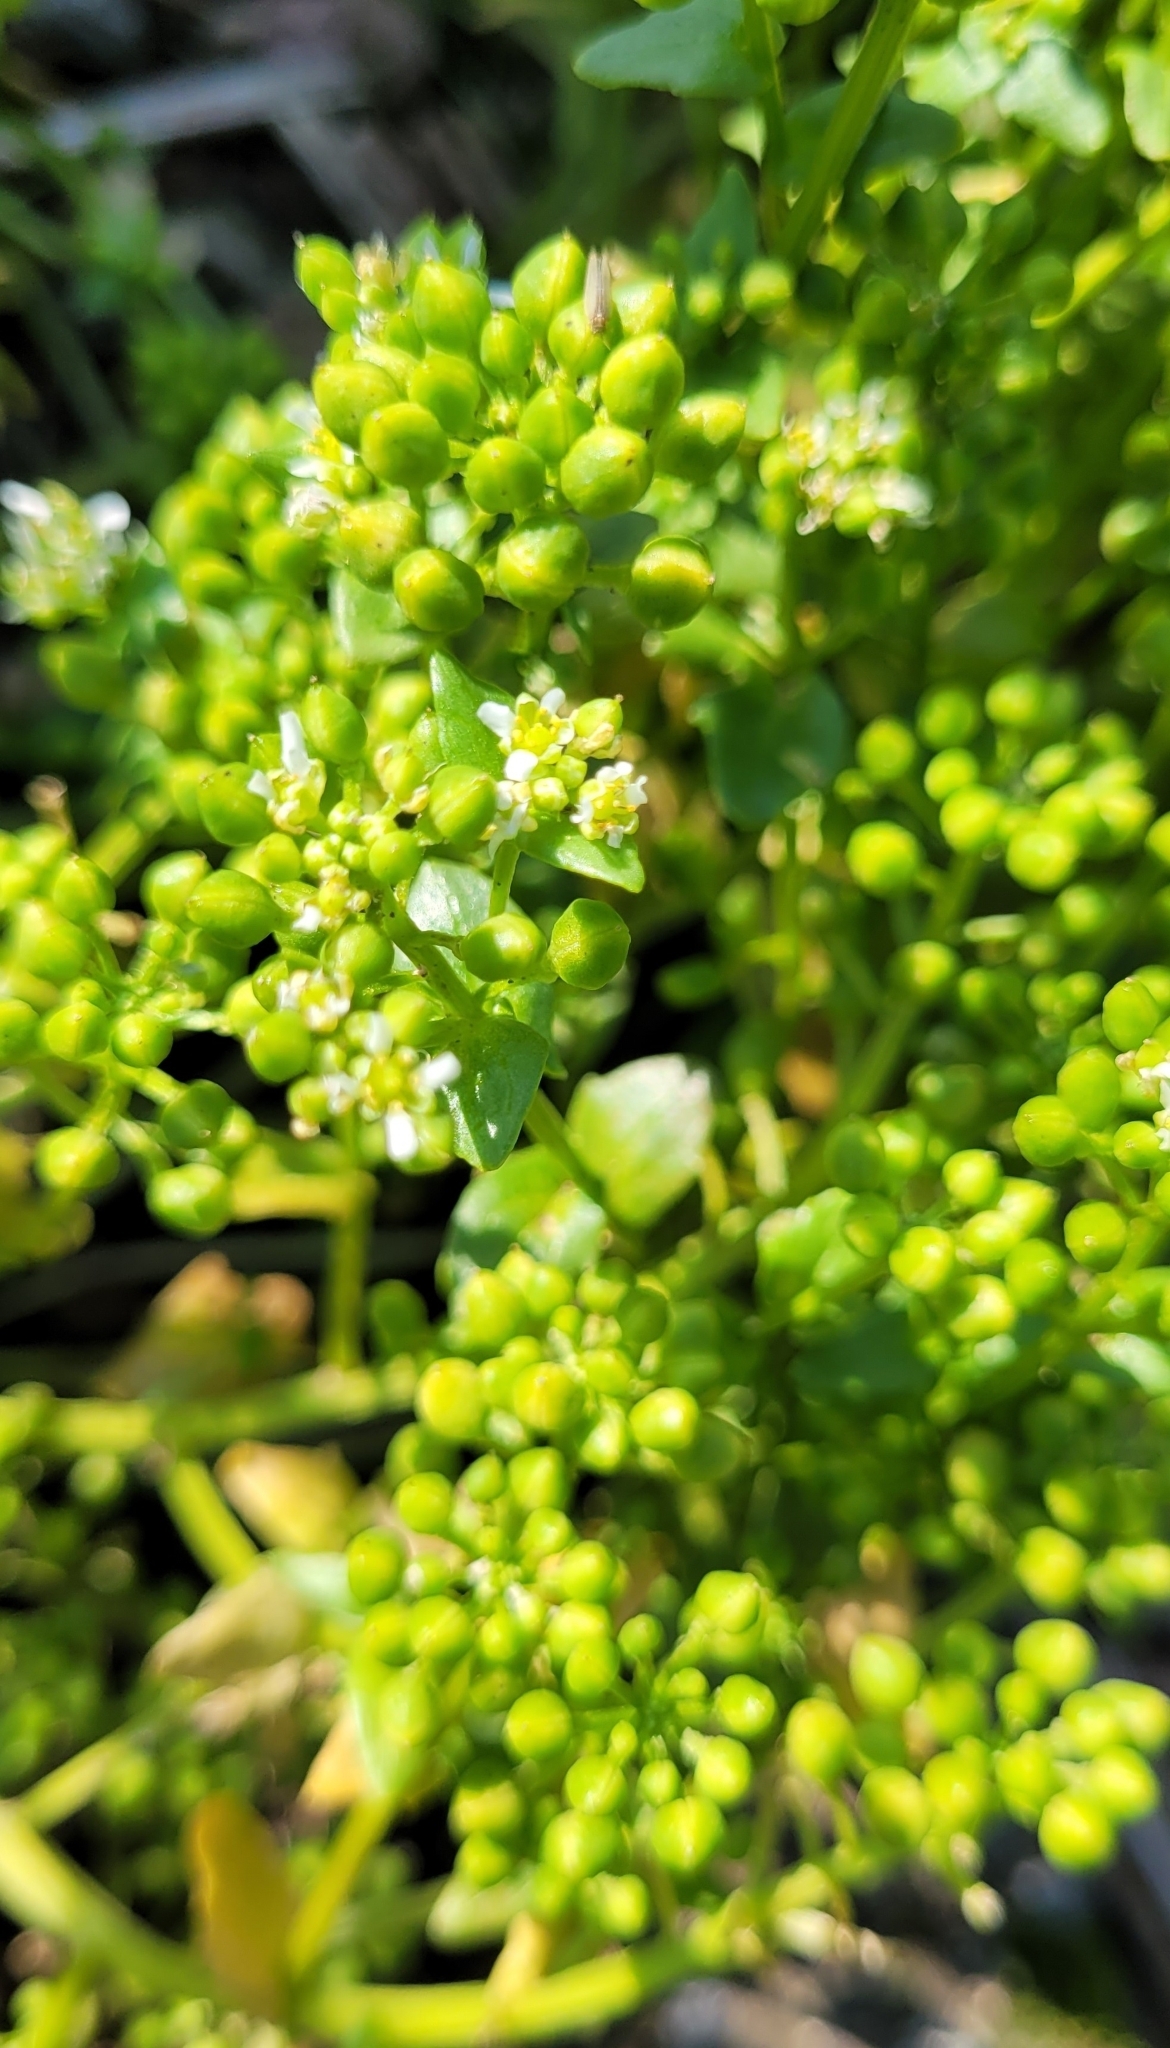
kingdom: Plantae
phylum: Tracheophyta
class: Magnoliopsida
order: Brassicales
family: Brassicaceae
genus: Cochlearia
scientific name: Cochlearia officinalis
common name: Scurvy-grass
